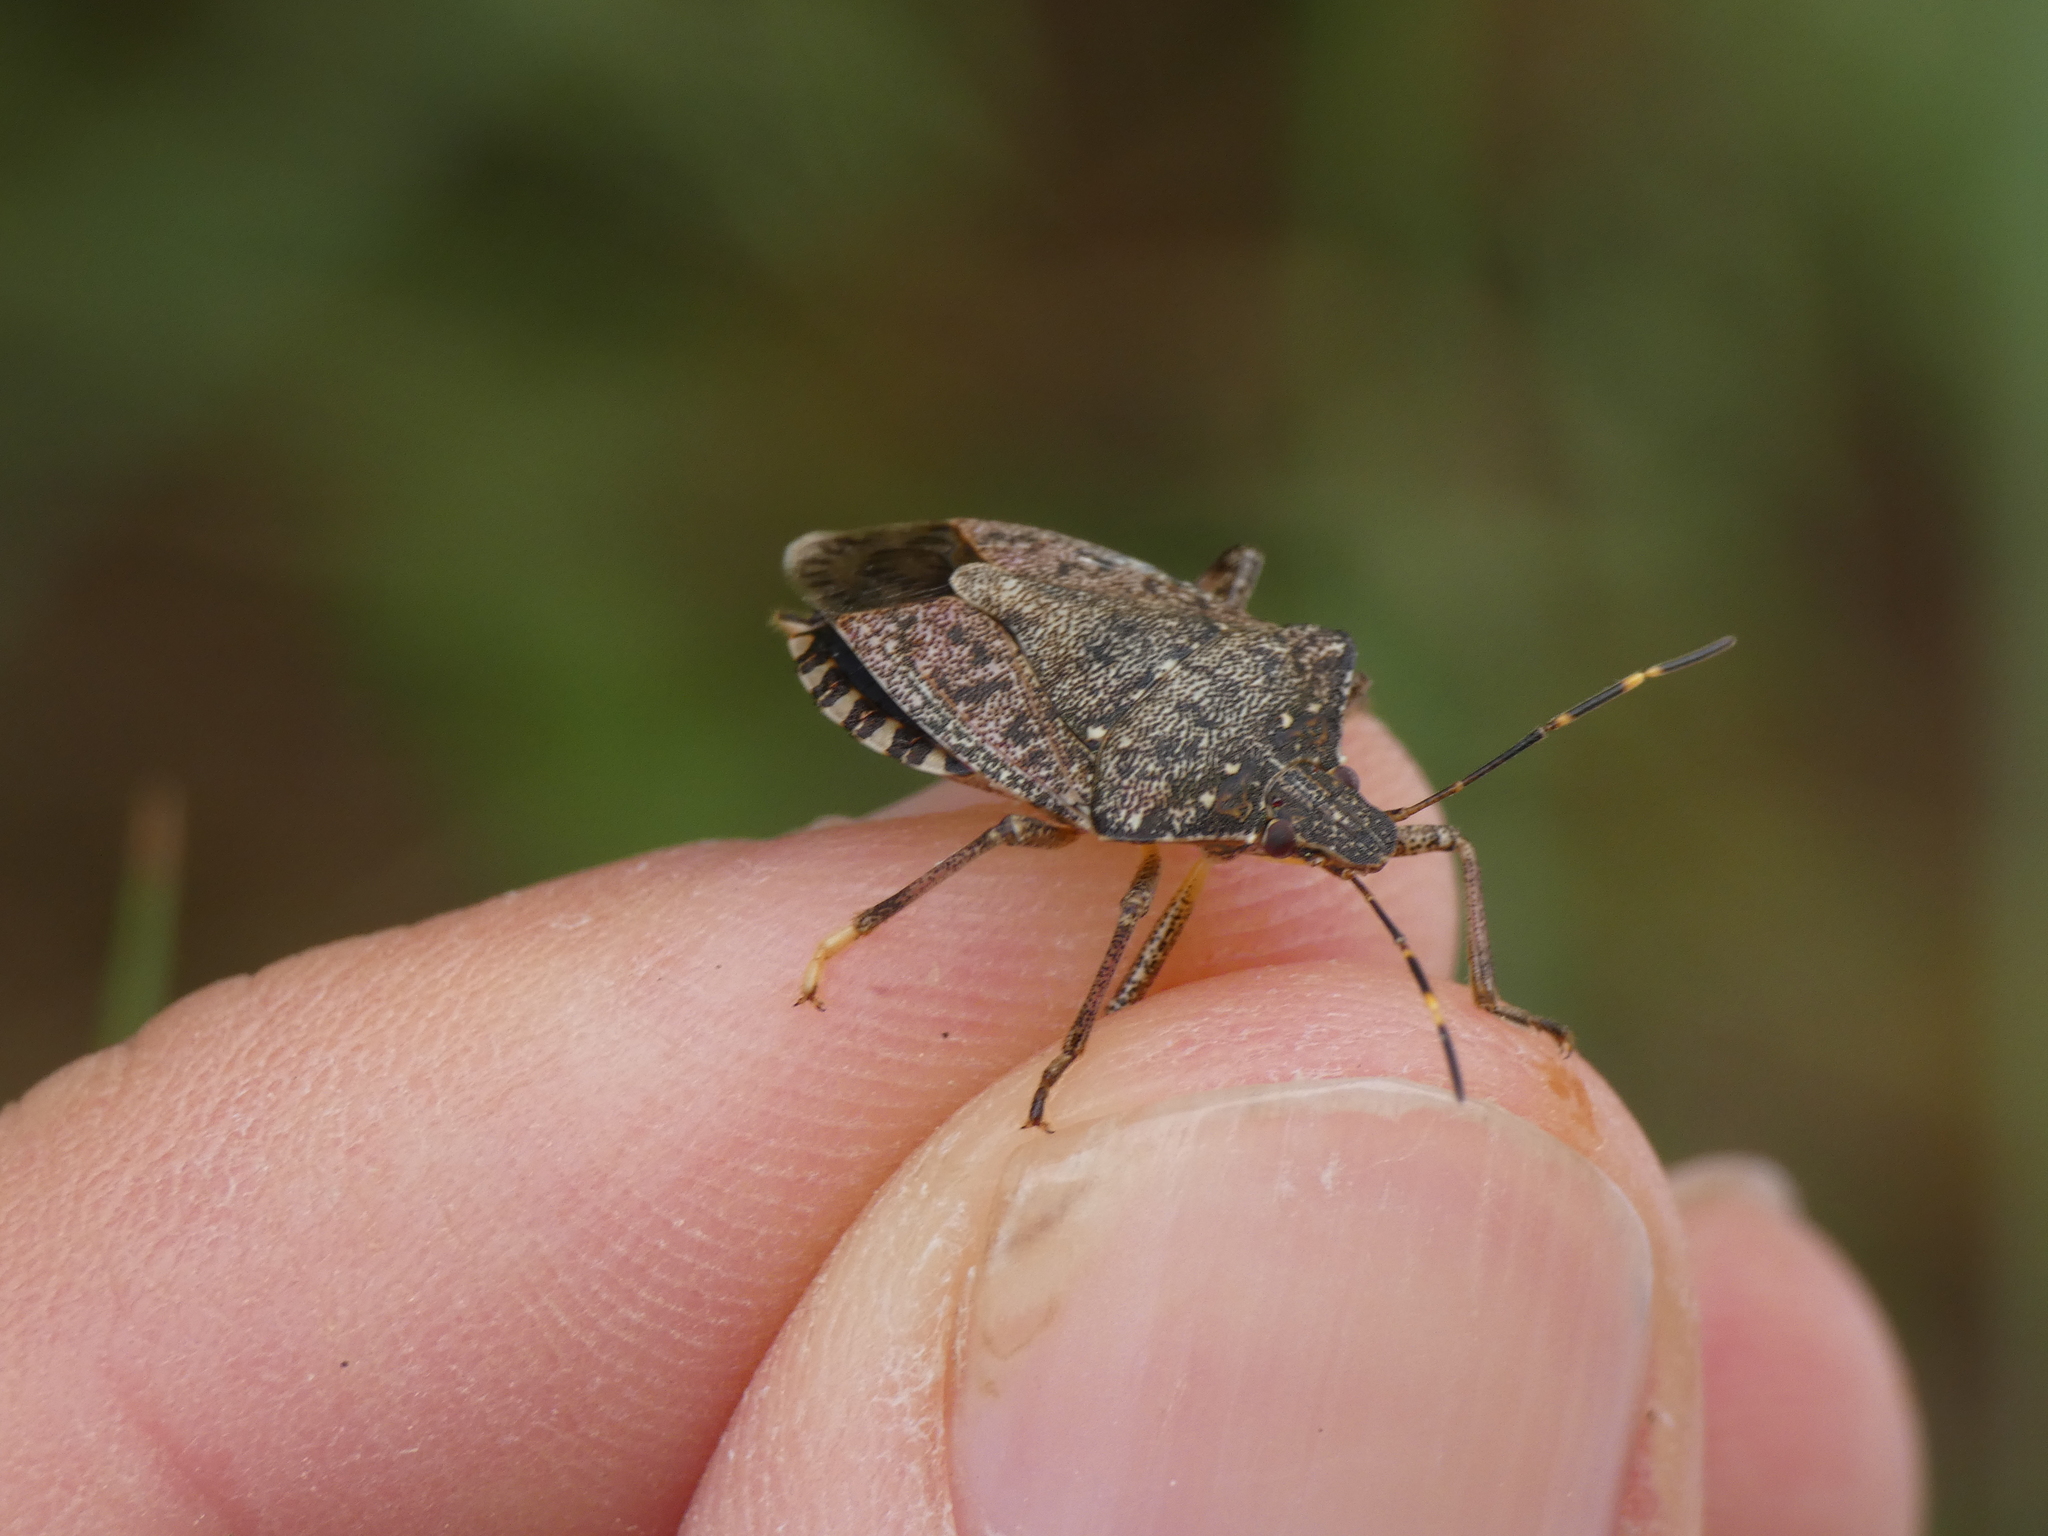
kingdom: Animalia
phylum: Arthropoda
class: Insecta
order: Hemiptera
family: Pentatomidae
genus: Halyomorpha
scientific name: Halyomorpha halys
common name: Brown marmorated stink bug
